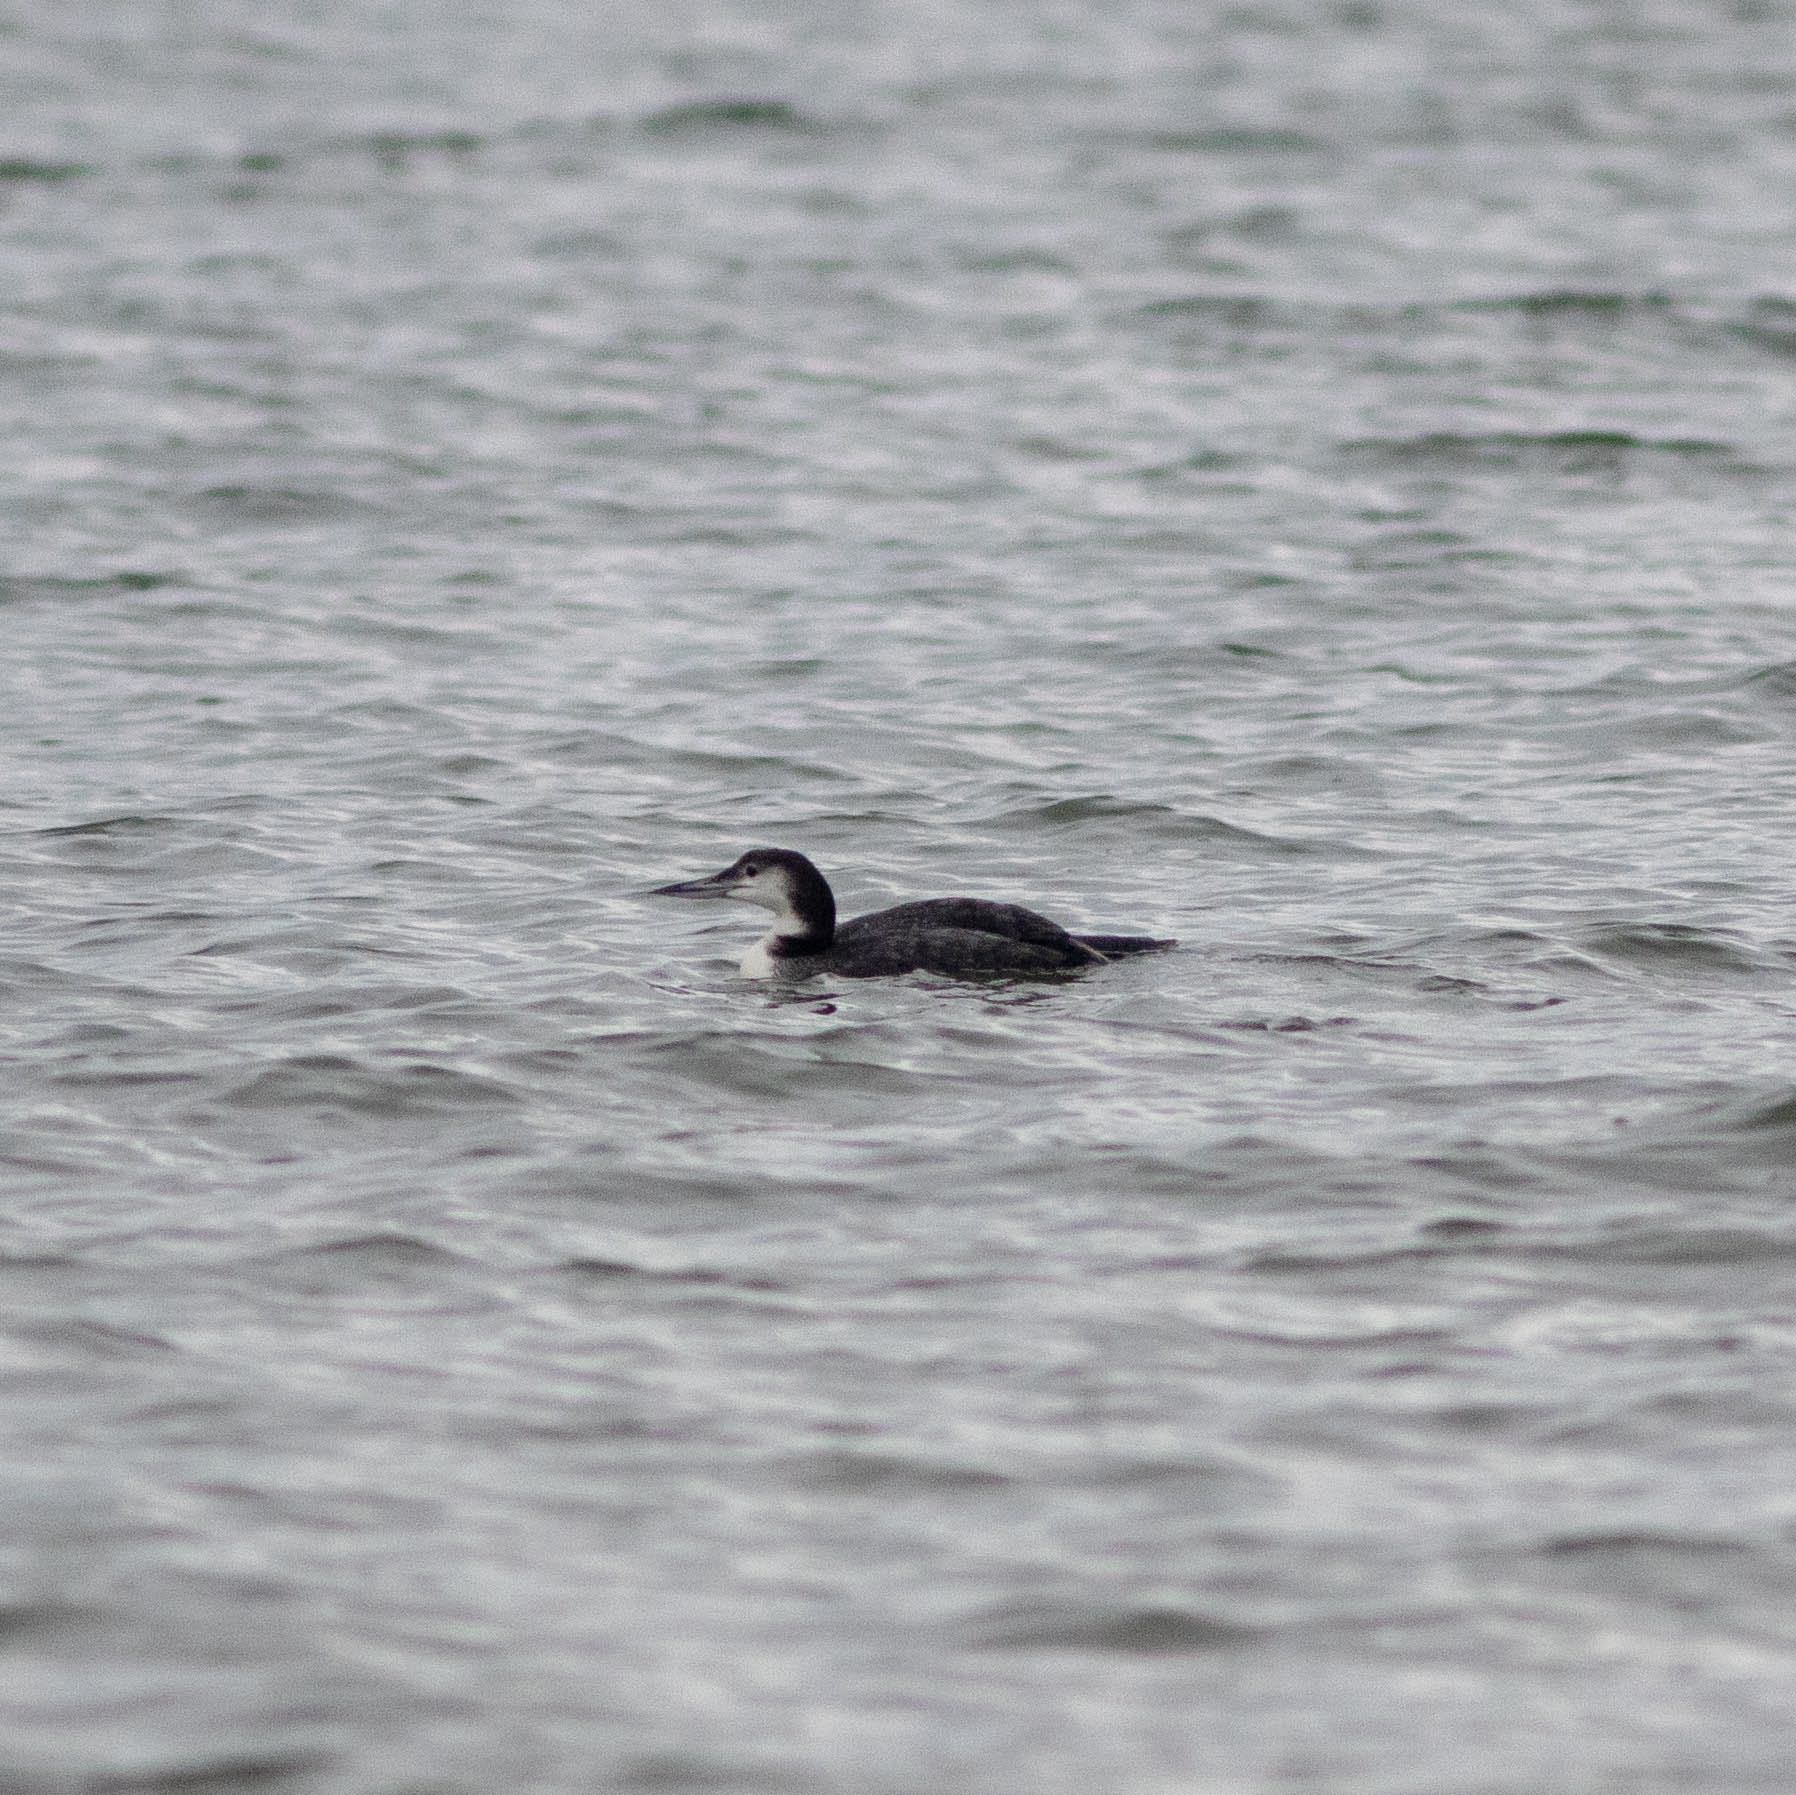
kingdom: Animalia
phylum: Chordata
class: Aves
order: Gaviiformes
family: Gaviidae
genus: Gavia
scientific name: Gavia immer
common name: Common loon
